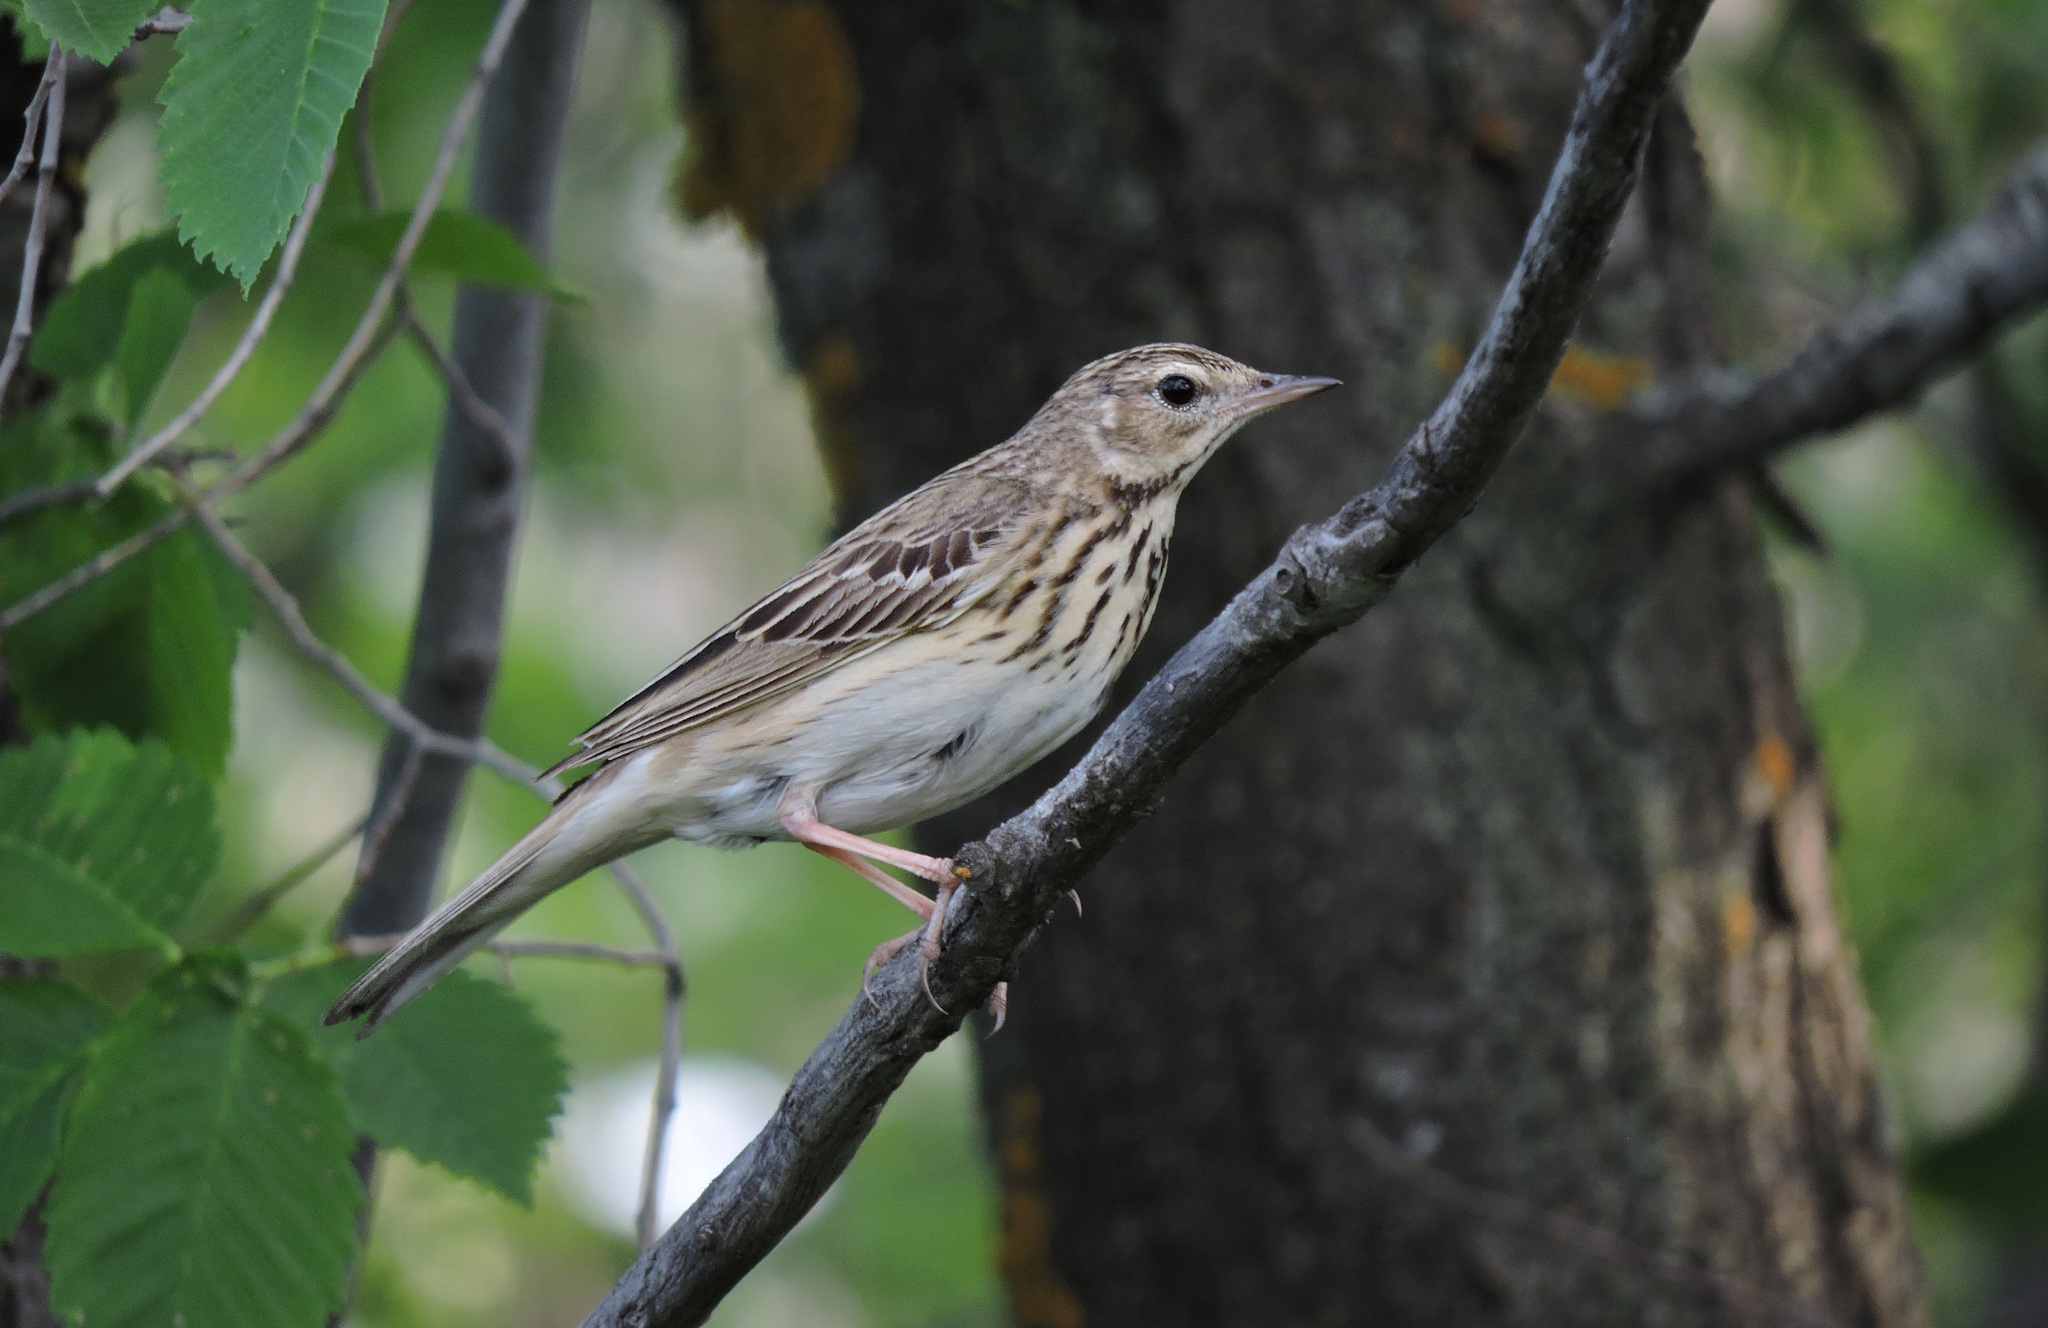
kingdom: Animalia
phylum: Chordata
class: Aves
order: Passeriformes
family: Motacillidae
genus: Anthus
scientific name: Anthus trivialis
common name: Tree pipit
